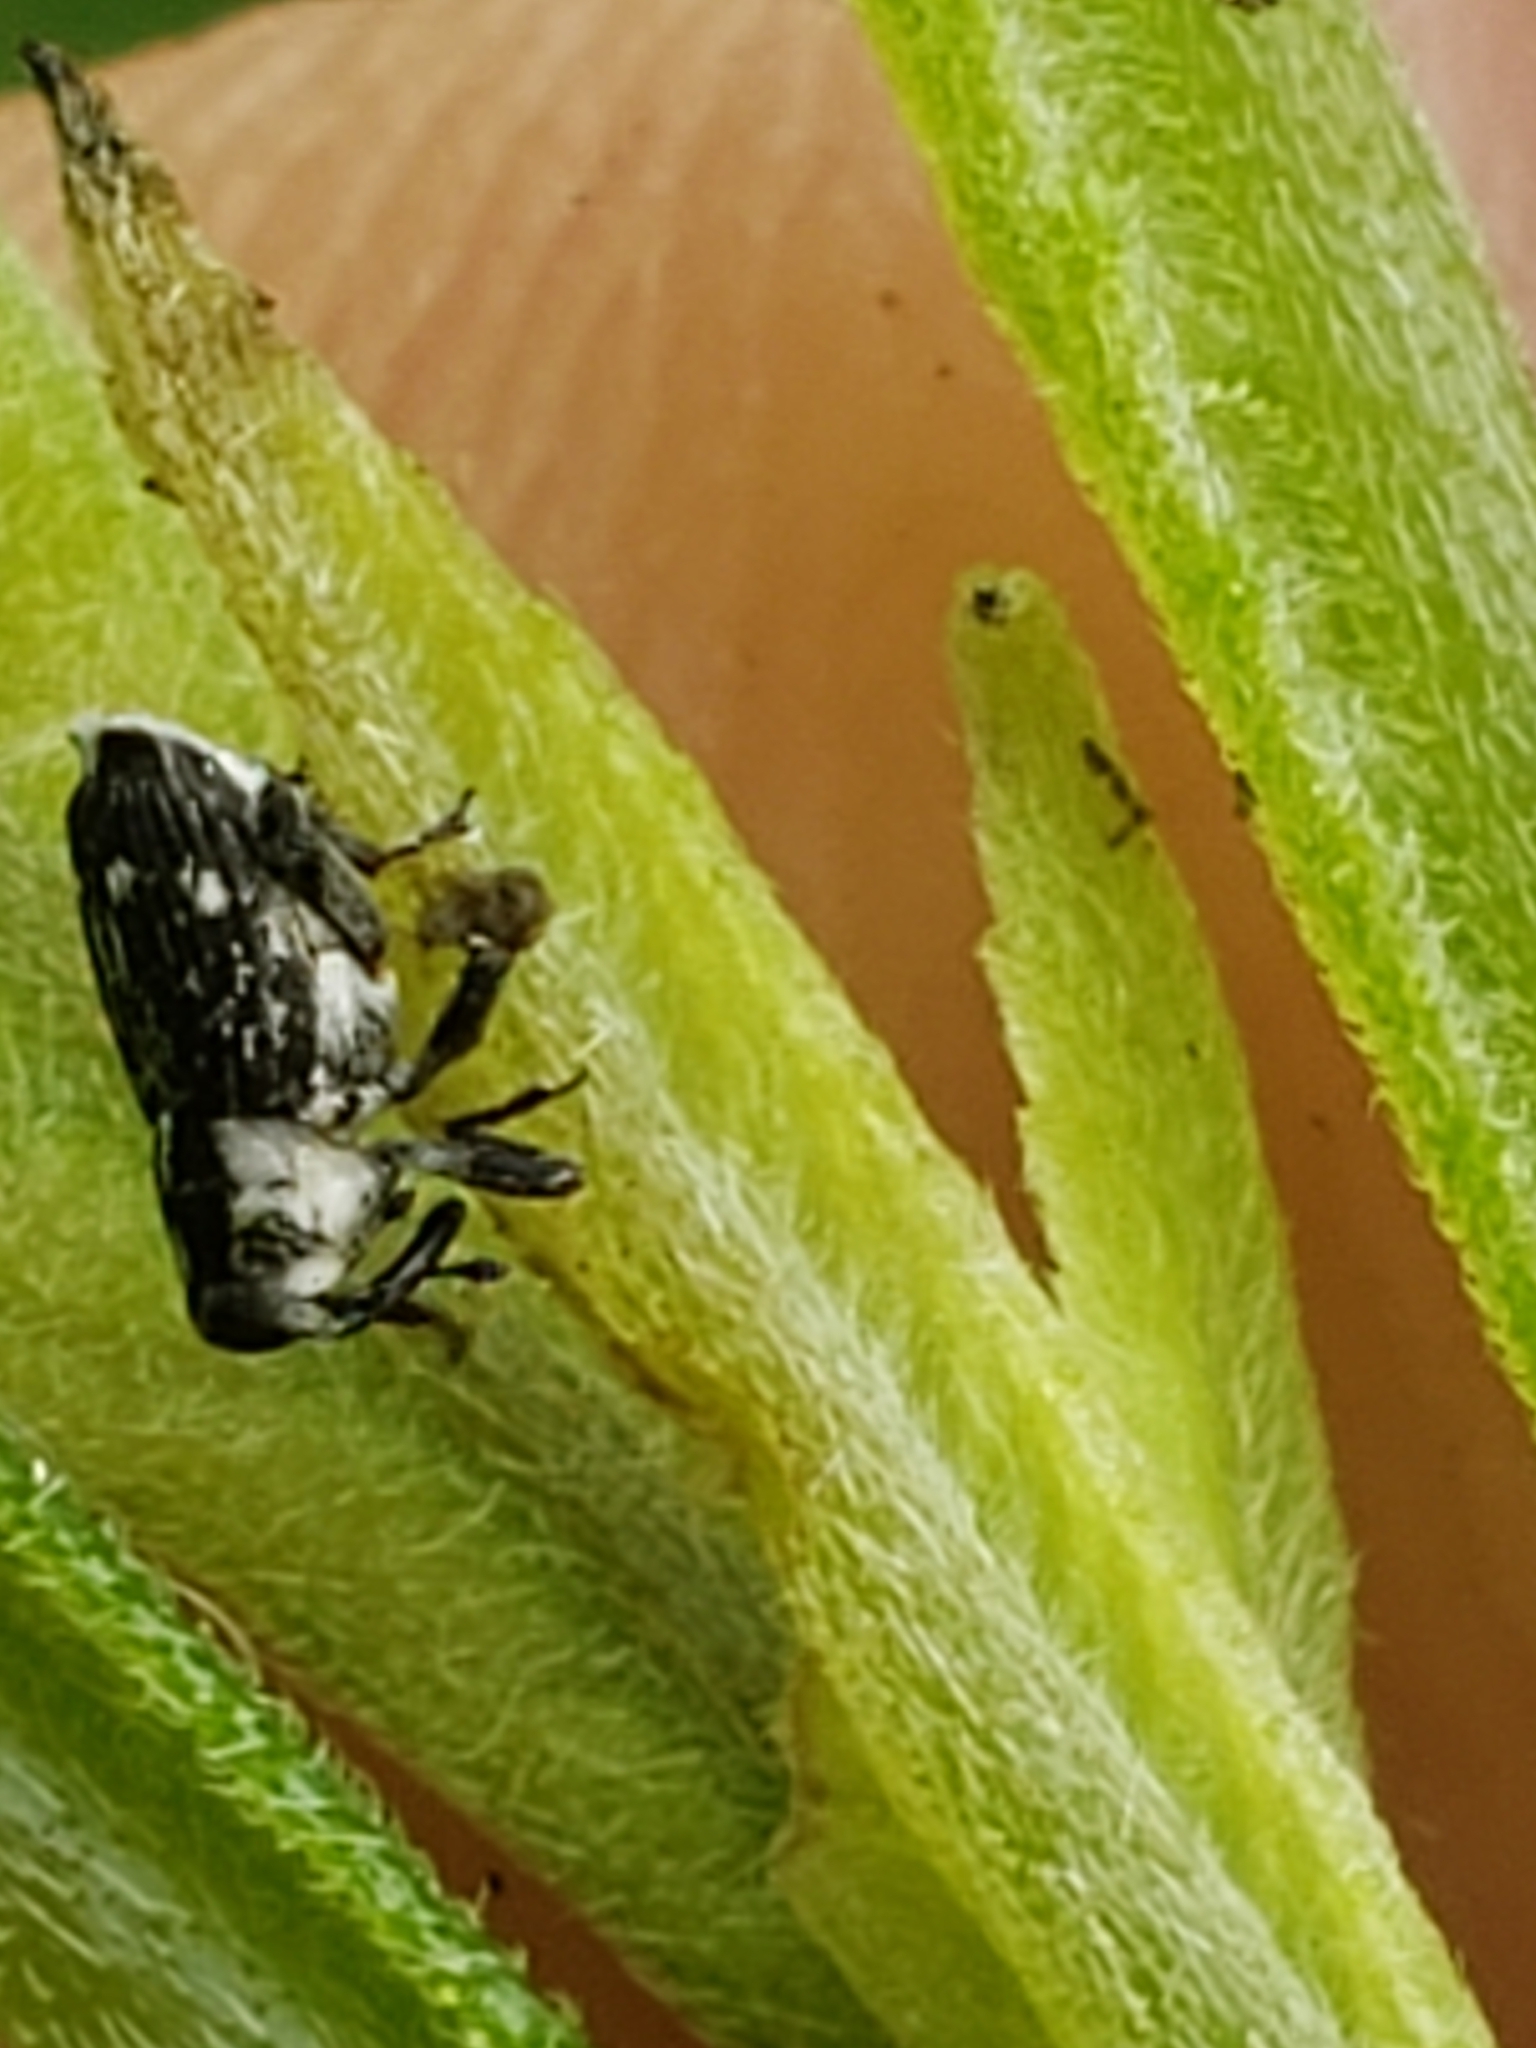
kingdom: Animalia
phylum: Arthropoda
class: Insecta
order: Coleoptera
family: Curculionidae
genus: Cylindrocopturus
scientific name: Cylindrocopturus quercus
